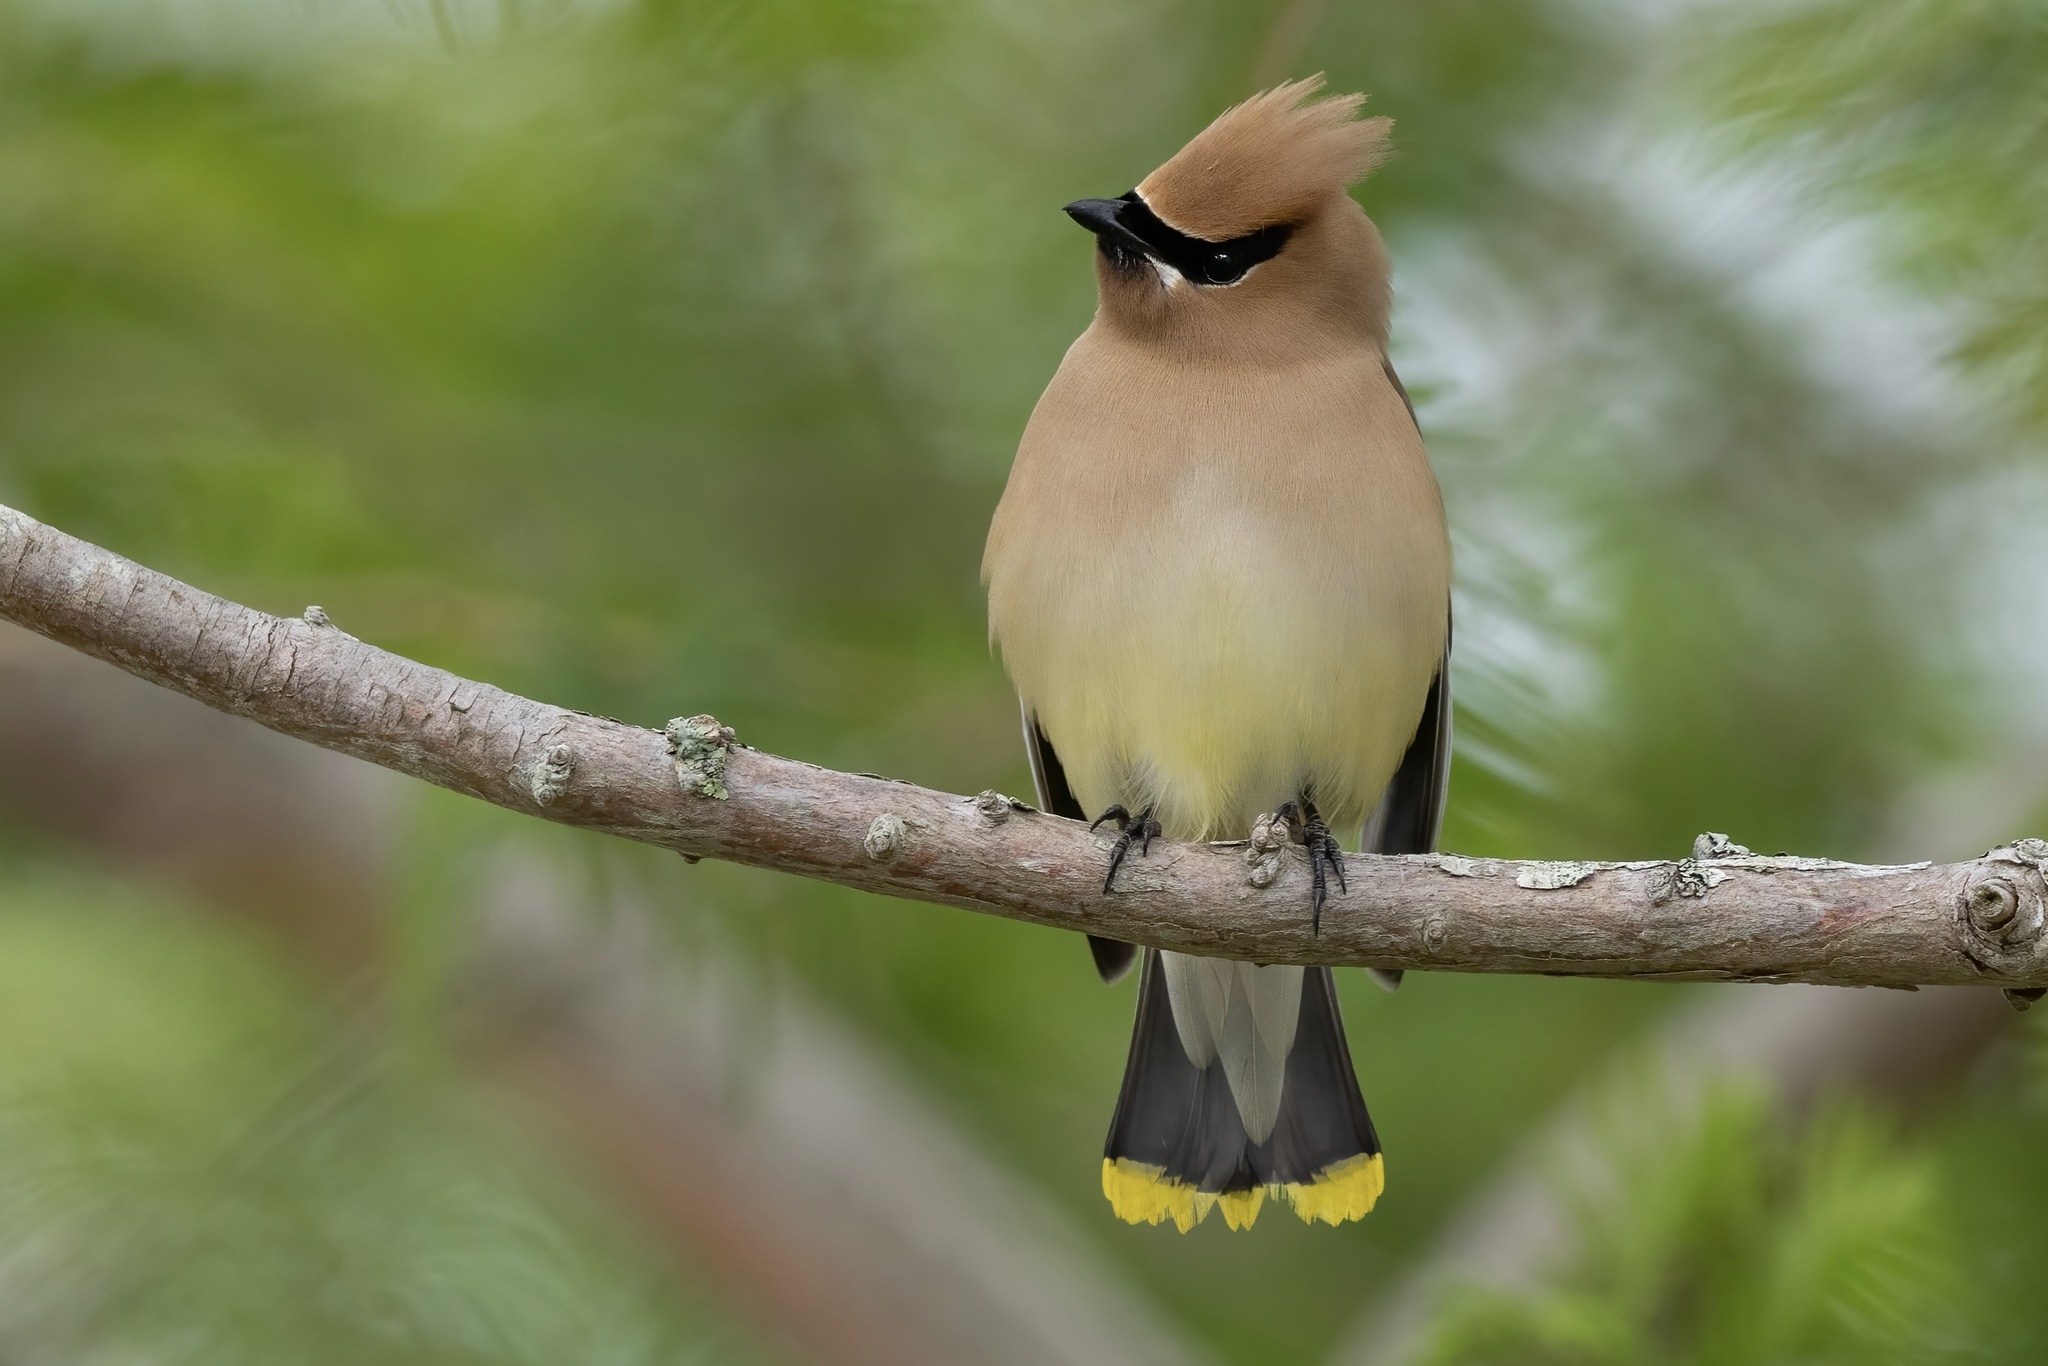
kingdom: Animalia
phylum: Chordata
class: Aves
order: Passeriformes
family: Bombycillidae
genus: Bombycilla
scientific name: Bombycilla cedrorum
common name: Cedar waxwing
